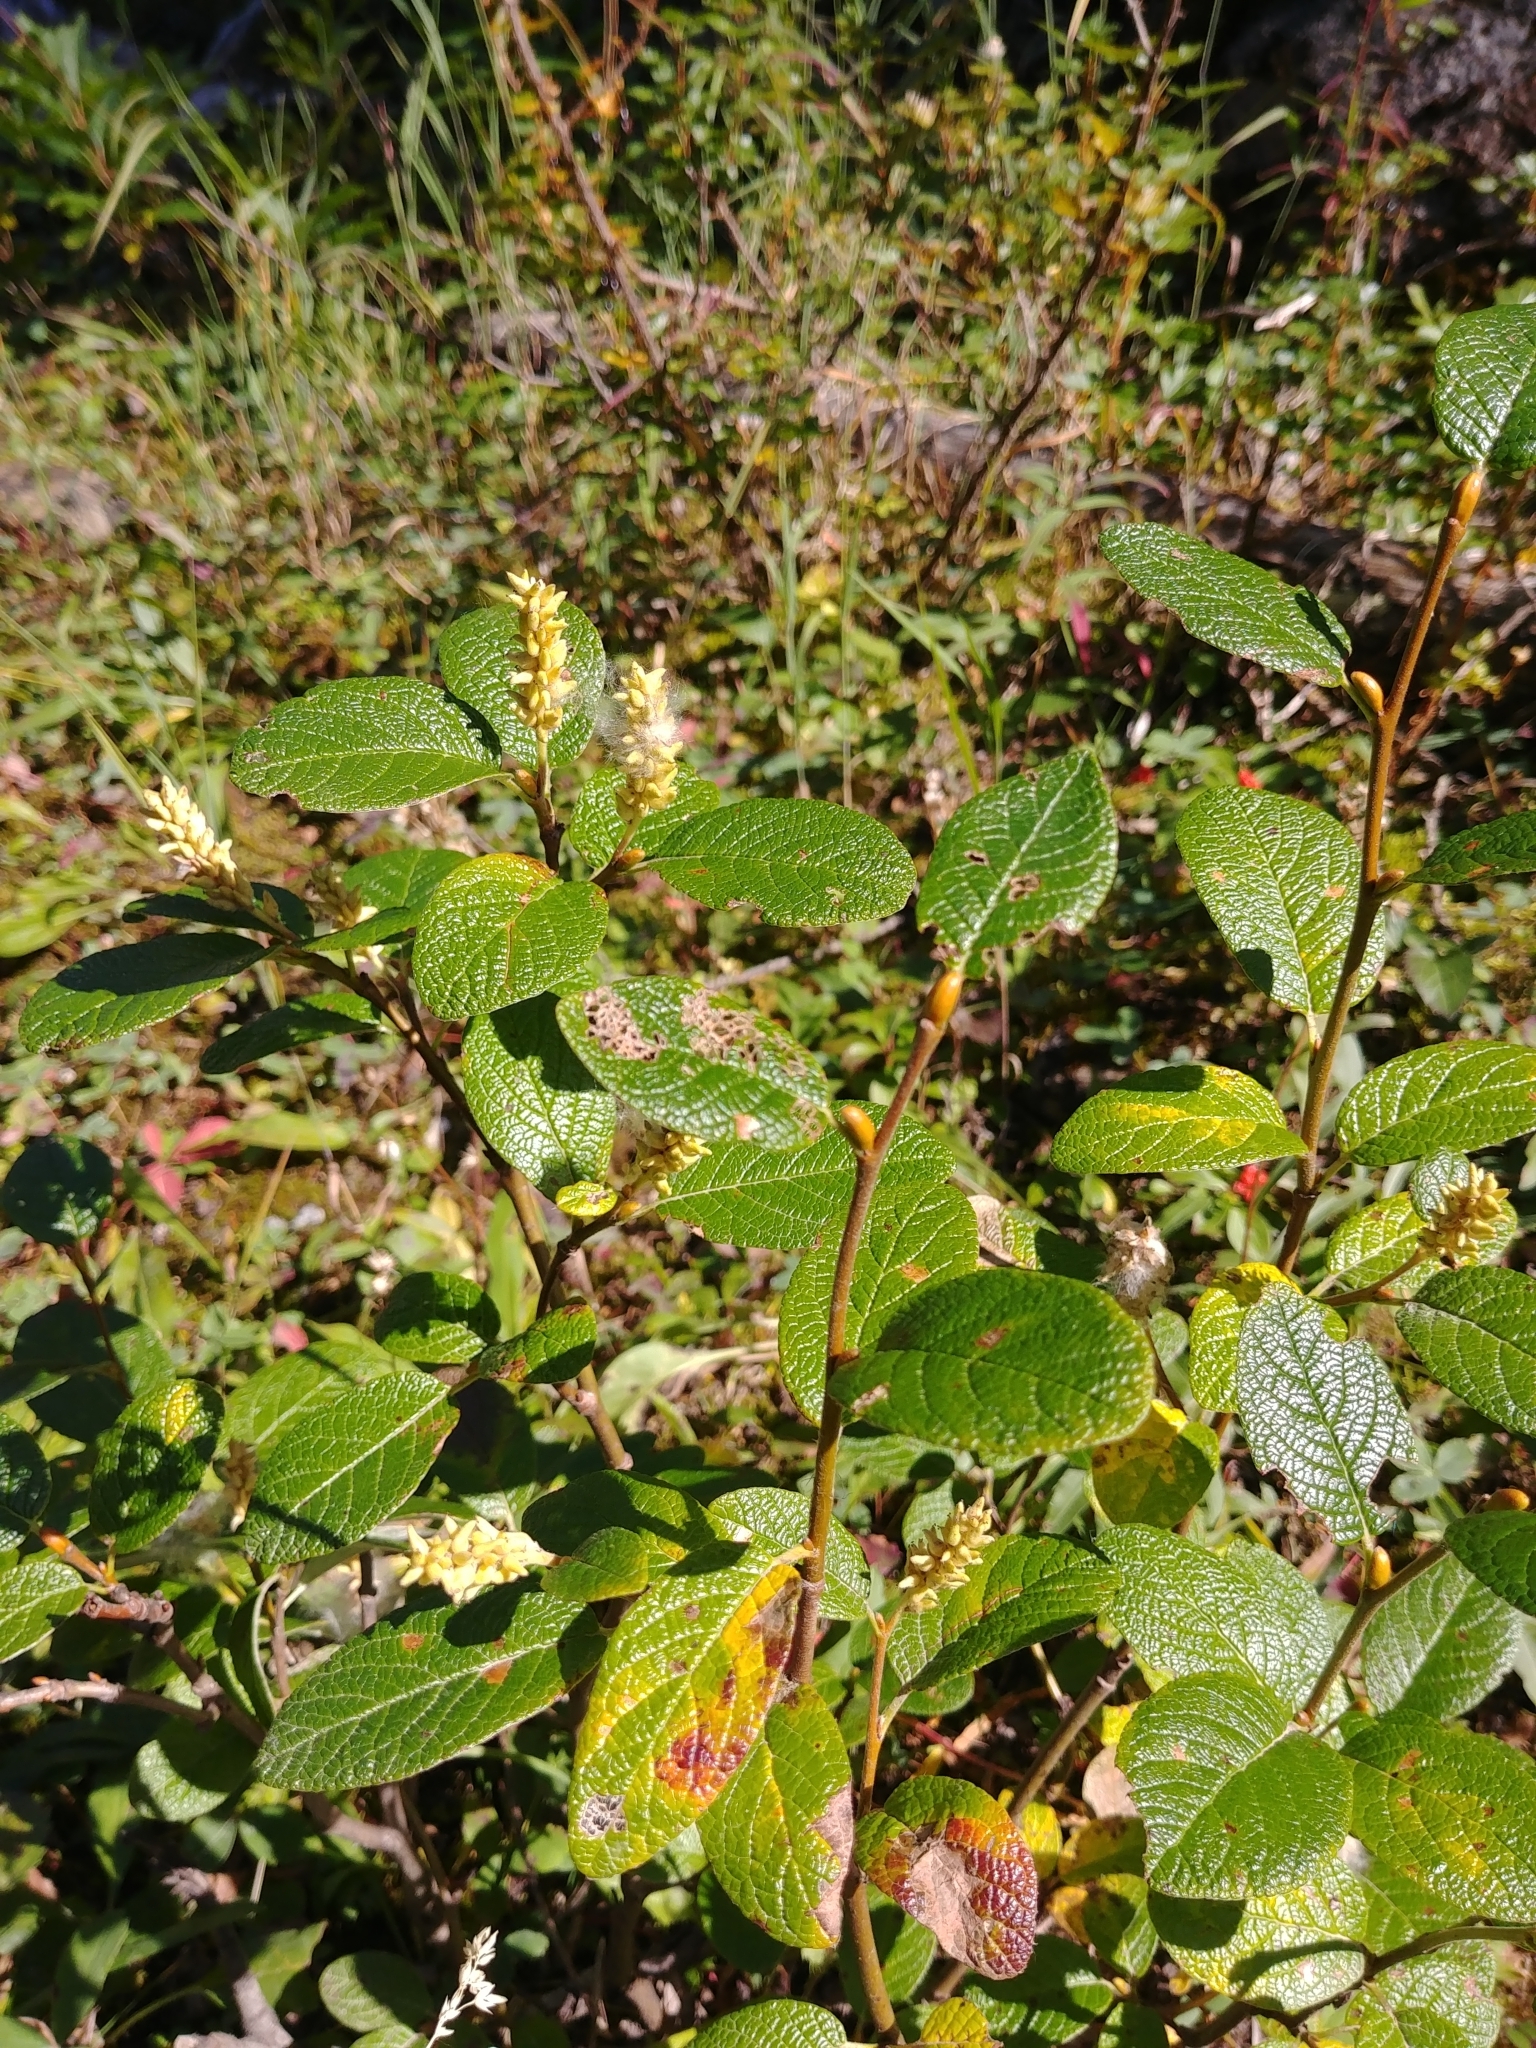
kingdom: Plantae
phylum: Tracheophyta
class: Magnoliopsida
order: Malpighiales
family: Salicaceae
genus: Salix
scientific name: Salix vestita
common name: Hairy willow
